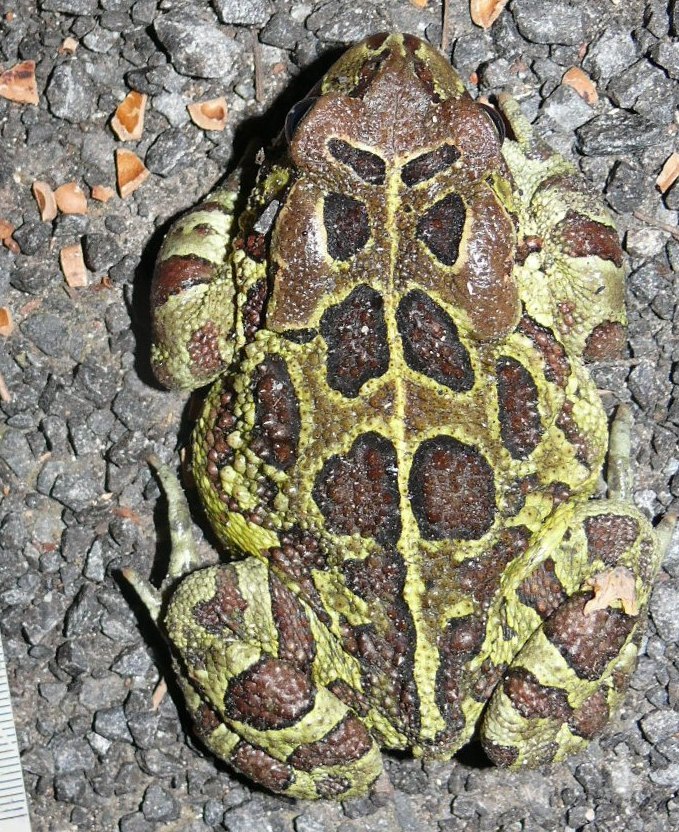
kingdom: Animalia
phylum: Chordata
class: Amphibia
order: Anura
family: Bufonidae
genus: Sclerophrys
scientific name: Sclerophrys pantherina
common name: Panther toad
